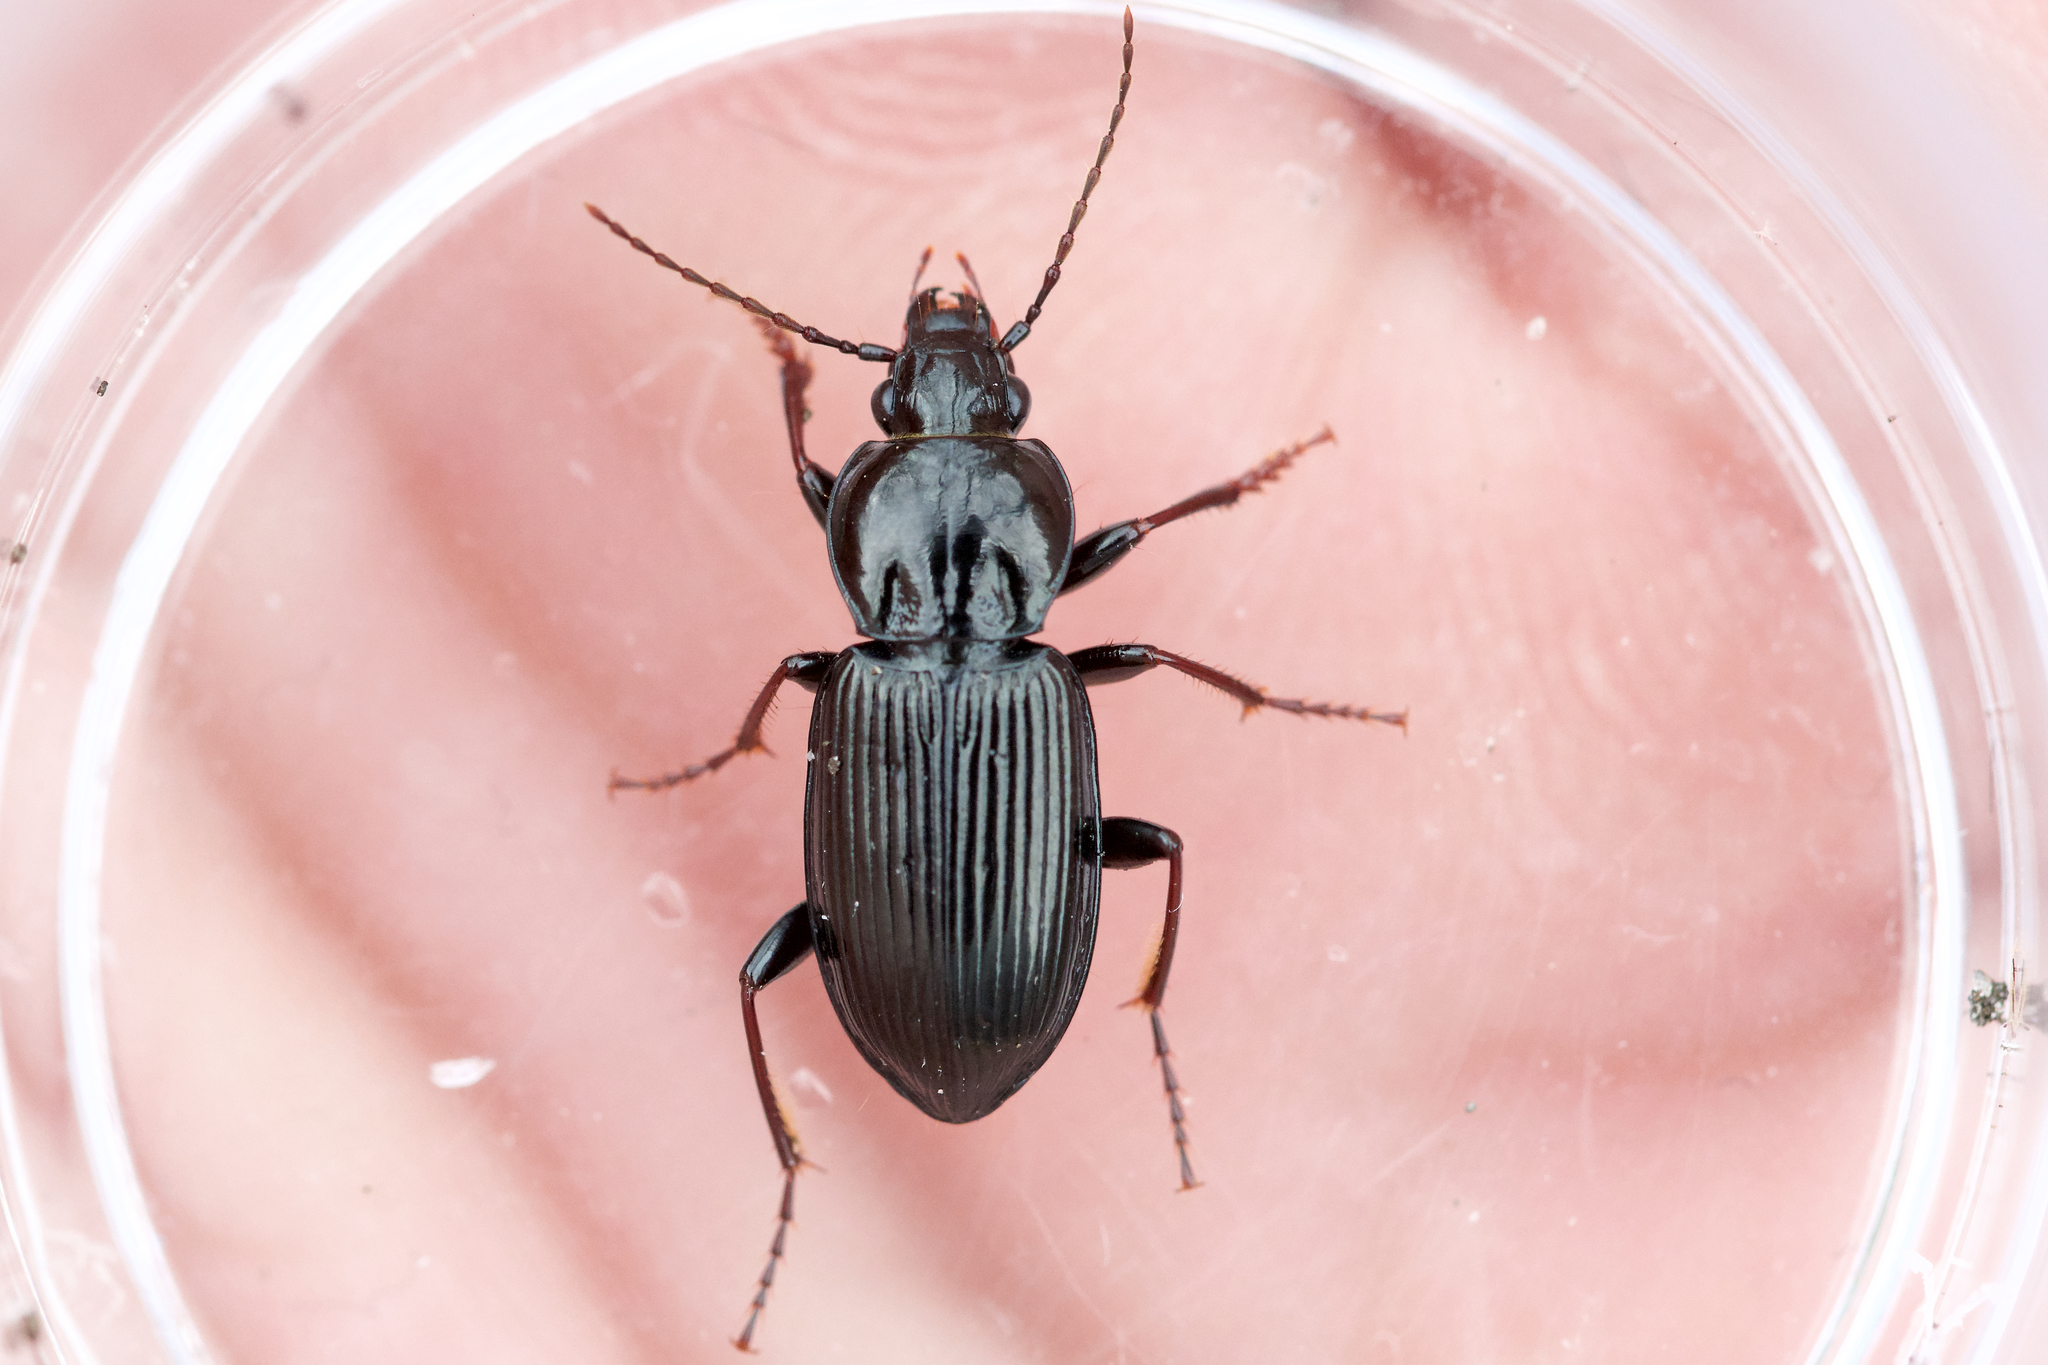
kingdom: Animalia
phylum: Arthropoda
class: Insecta
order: Coleoptera
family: Carabidae
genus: Pterostichus
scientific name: Pterostichus mutus
